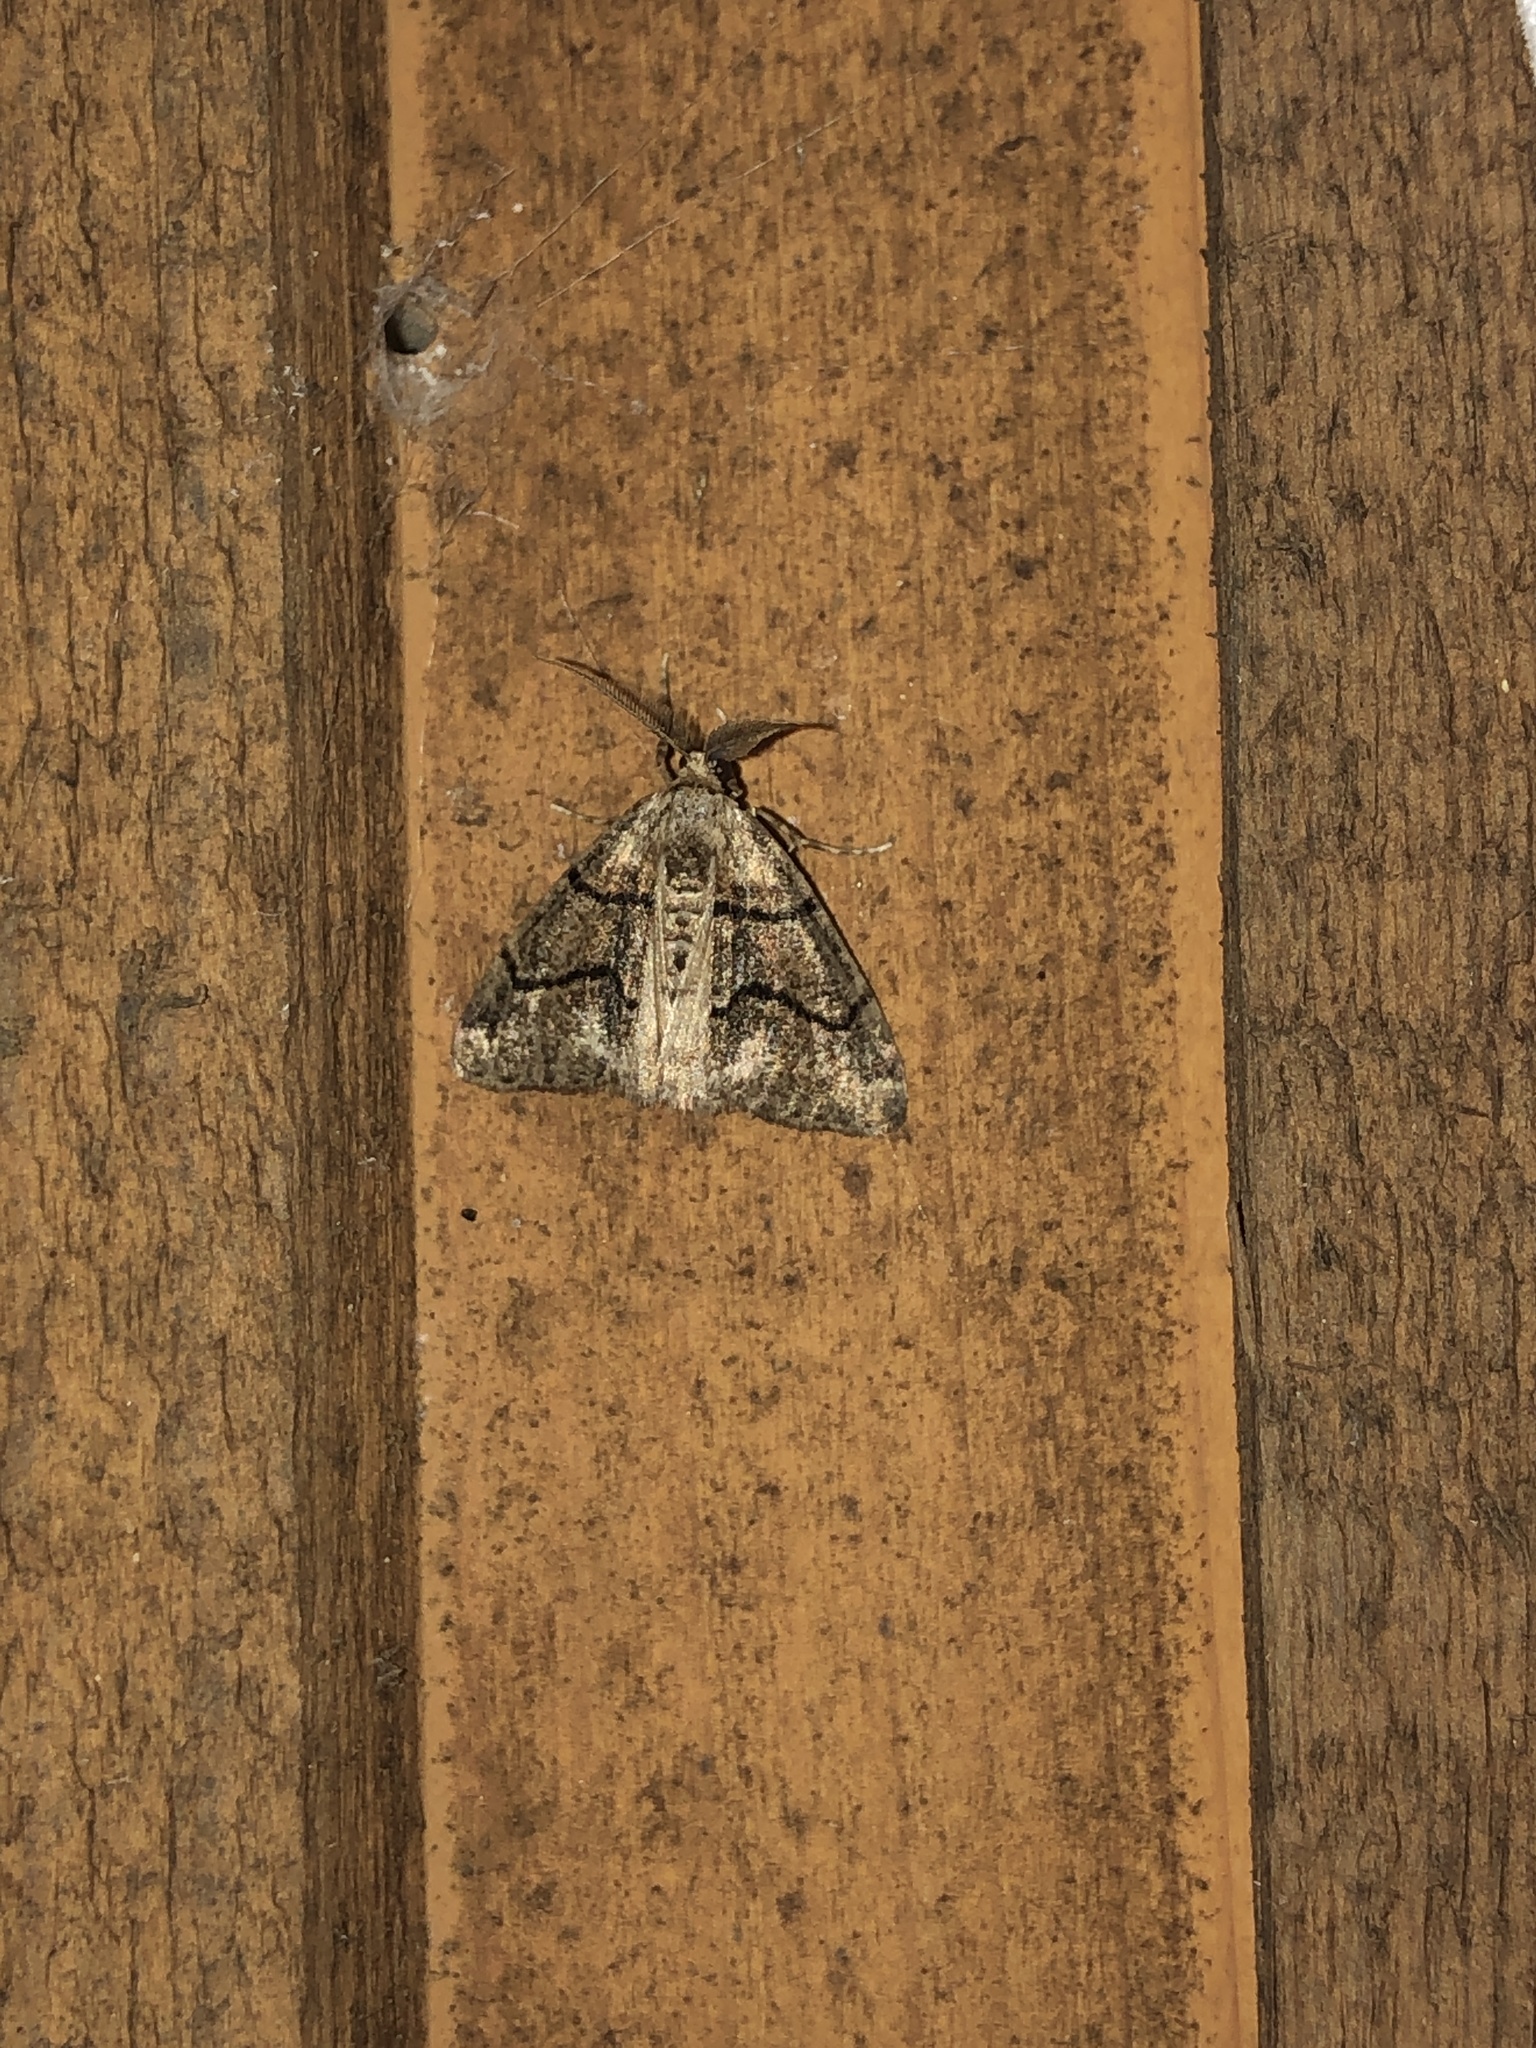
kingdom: Animalia
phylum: Arthropoda
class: Insecta
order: Lepidoptera
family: Geometridae
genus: Gabriola
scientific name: Gabriola dyari
